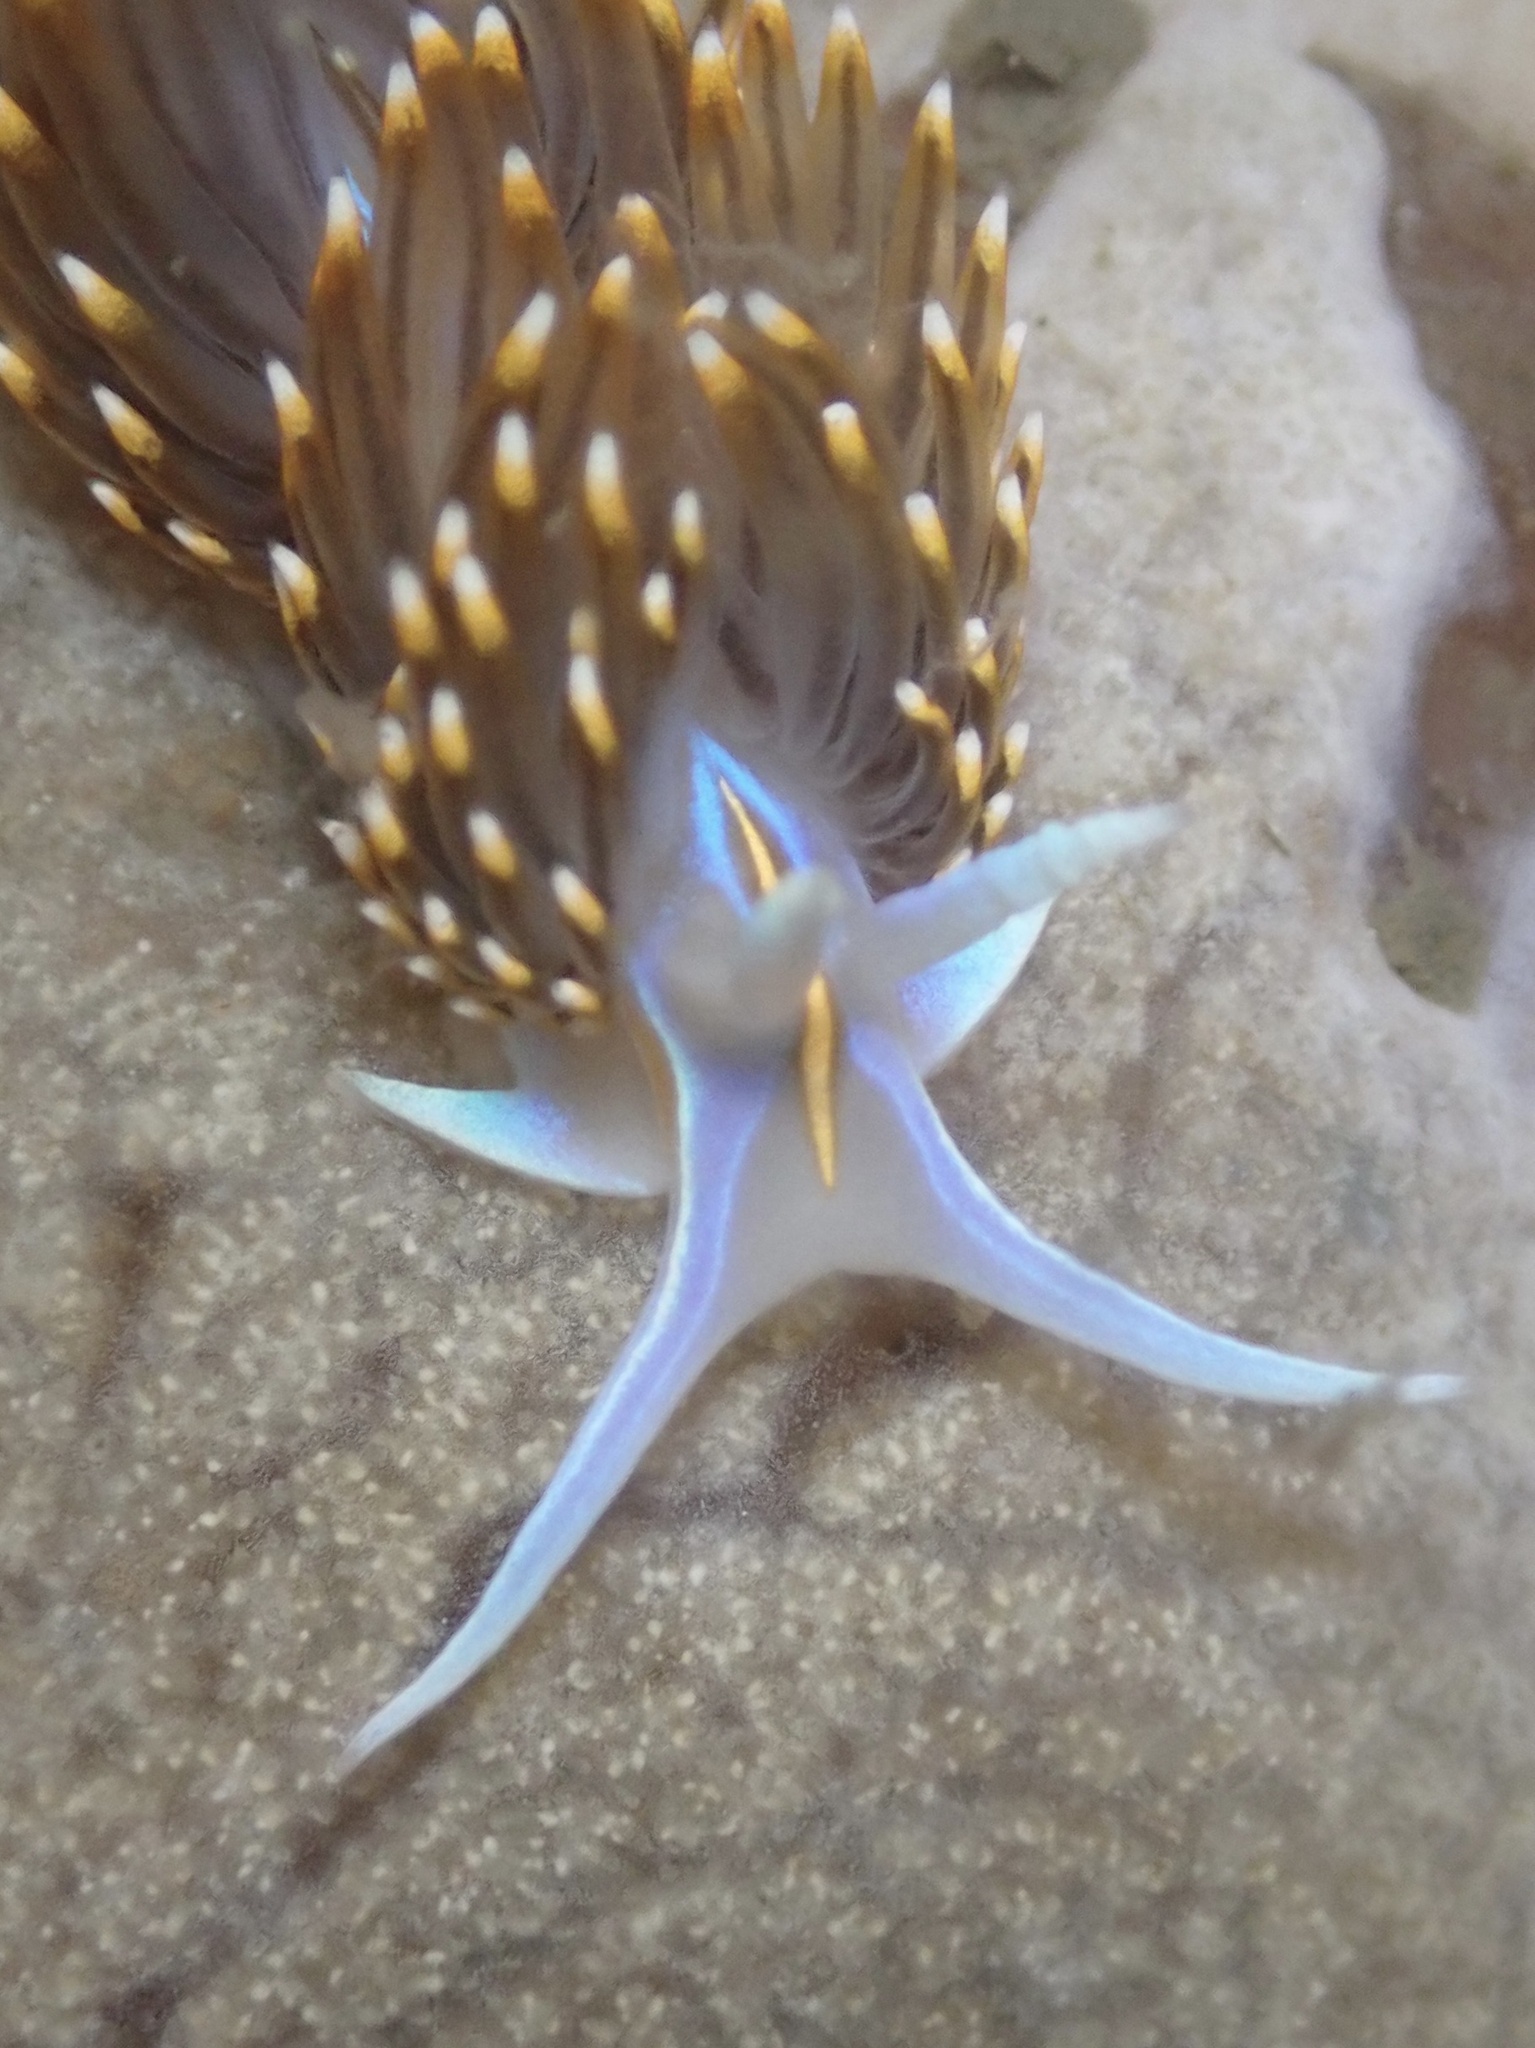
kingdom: Animalia
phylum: Mollusca
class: Gastropoda
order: Nudibranchia
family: Myrrhinidae
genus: Hermissenda
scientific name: Hermissenda opalescens
